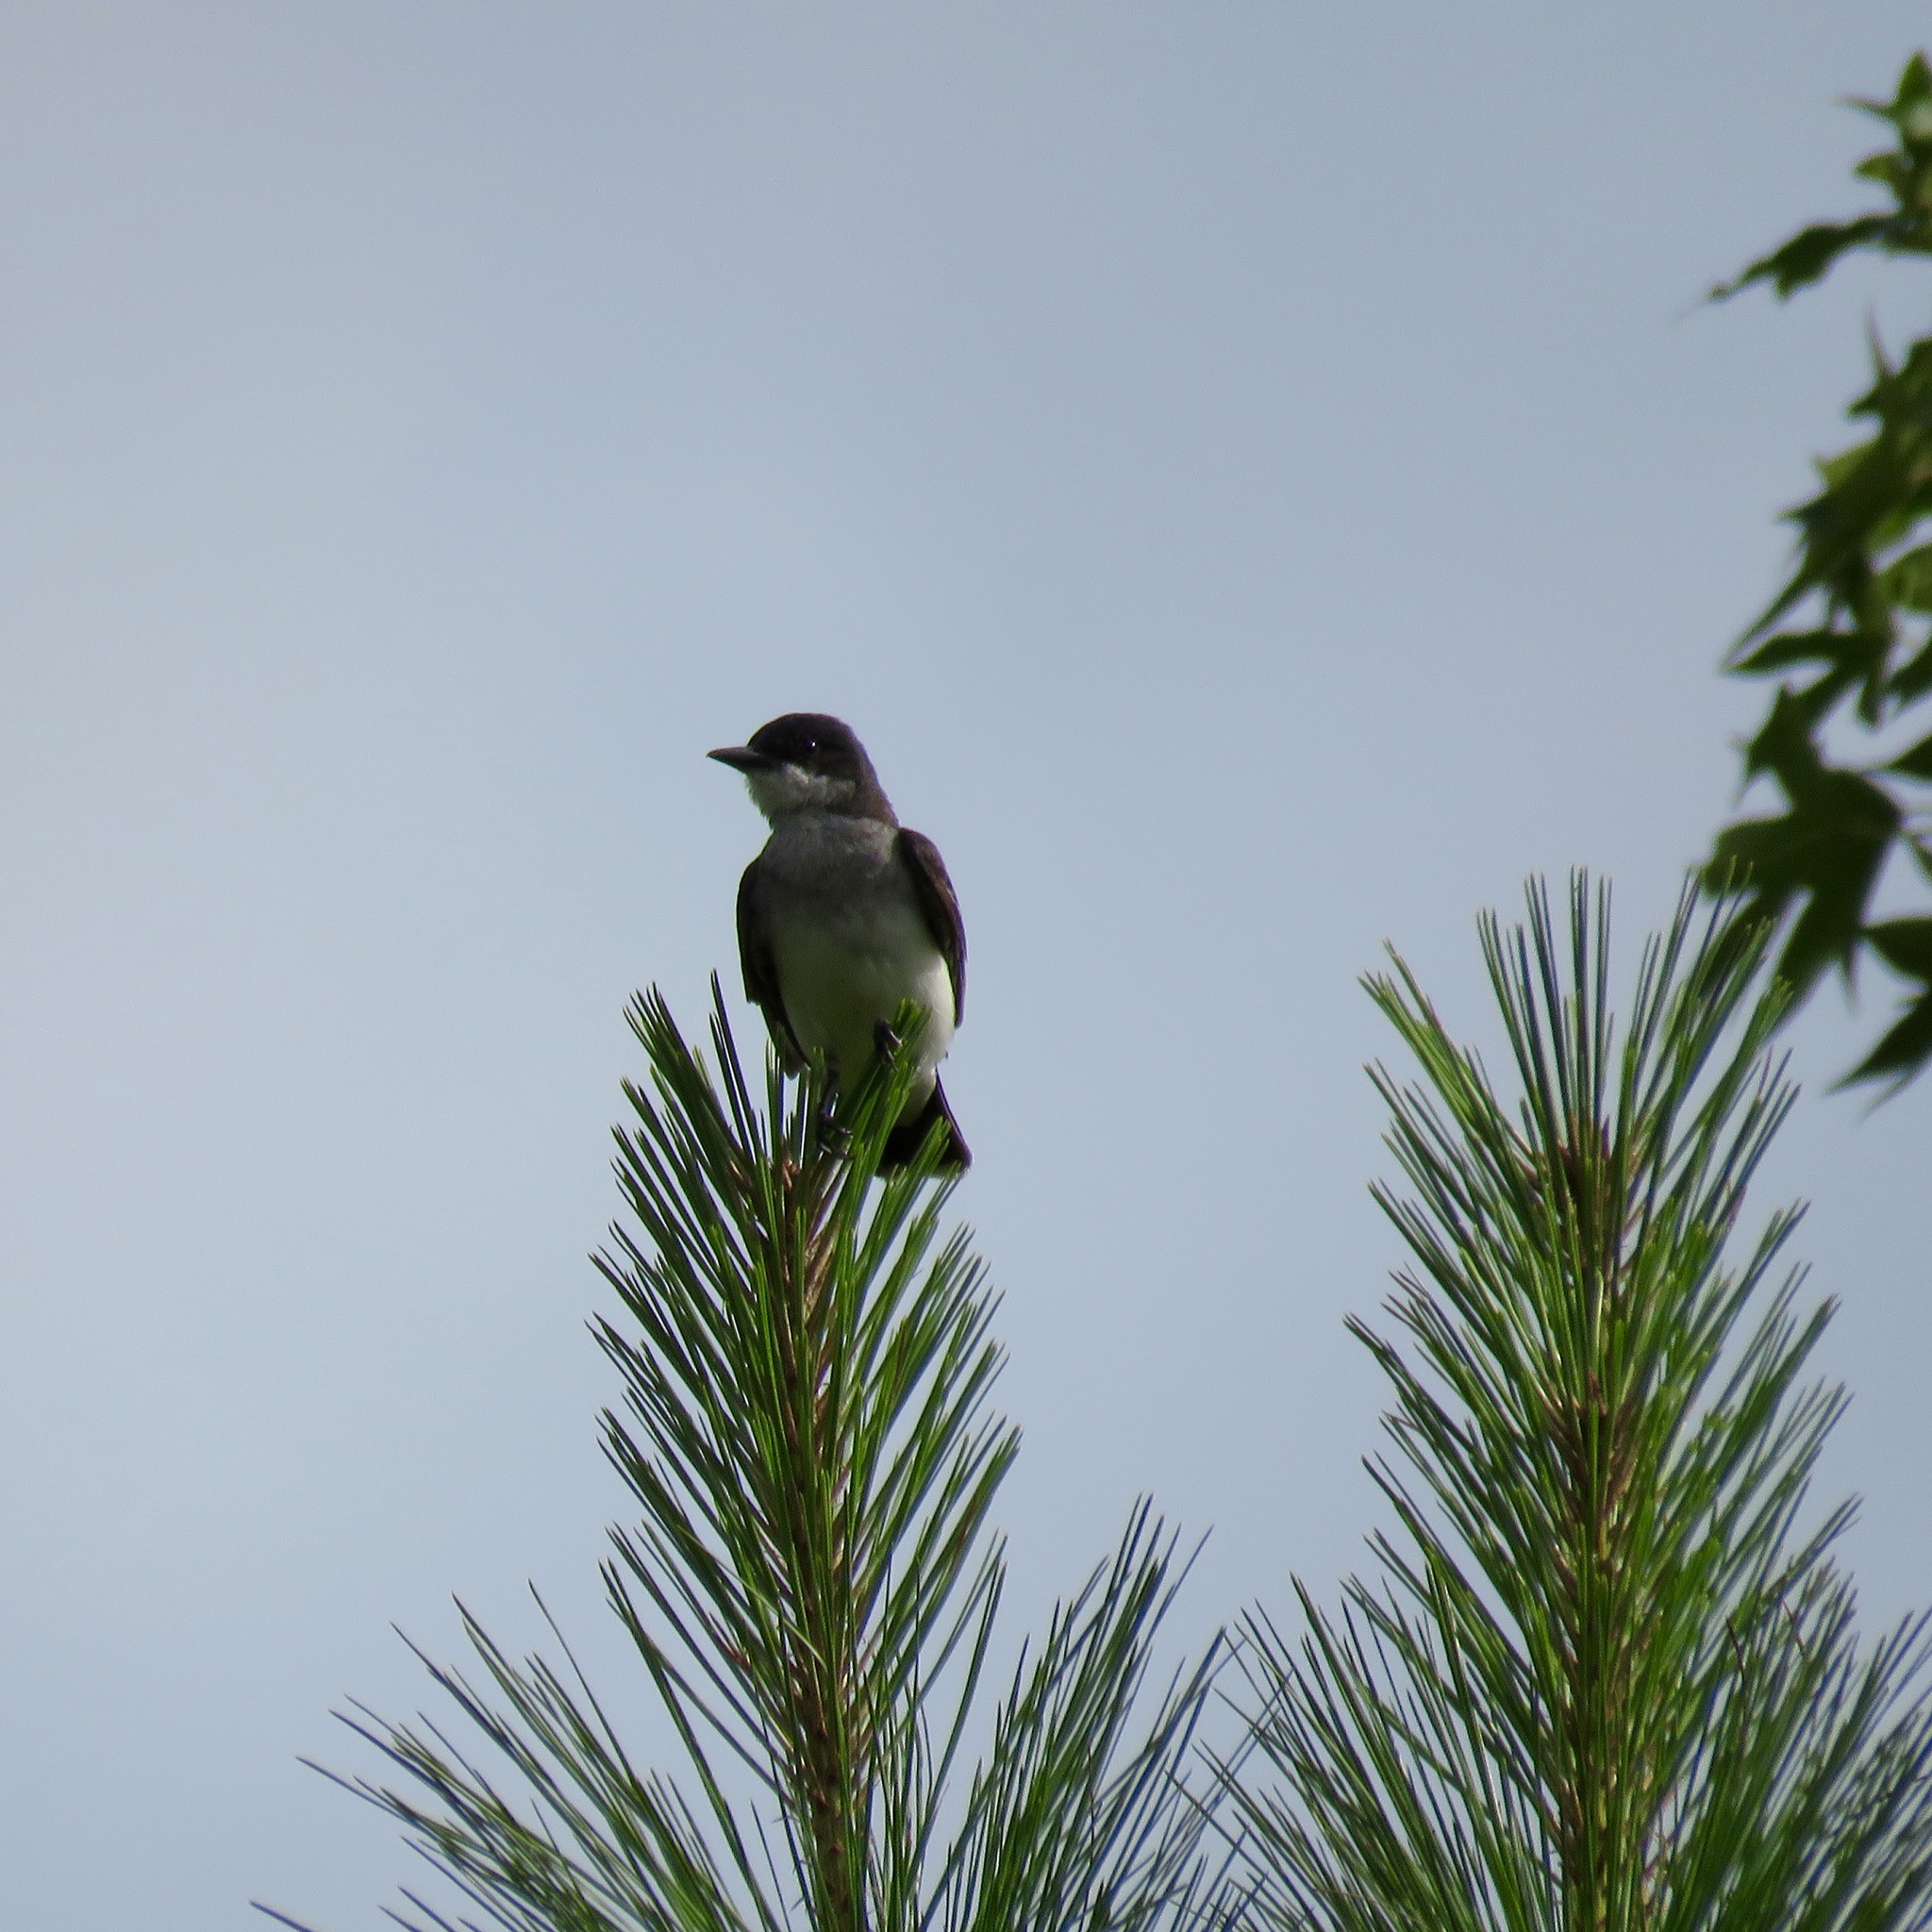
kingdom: Animalia
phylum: Chordata
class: Aves
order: Passeriformes
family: Tyrannidae
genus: Tyrannus
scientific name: Tyrannus tyrannus
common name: Eastern kingbird
